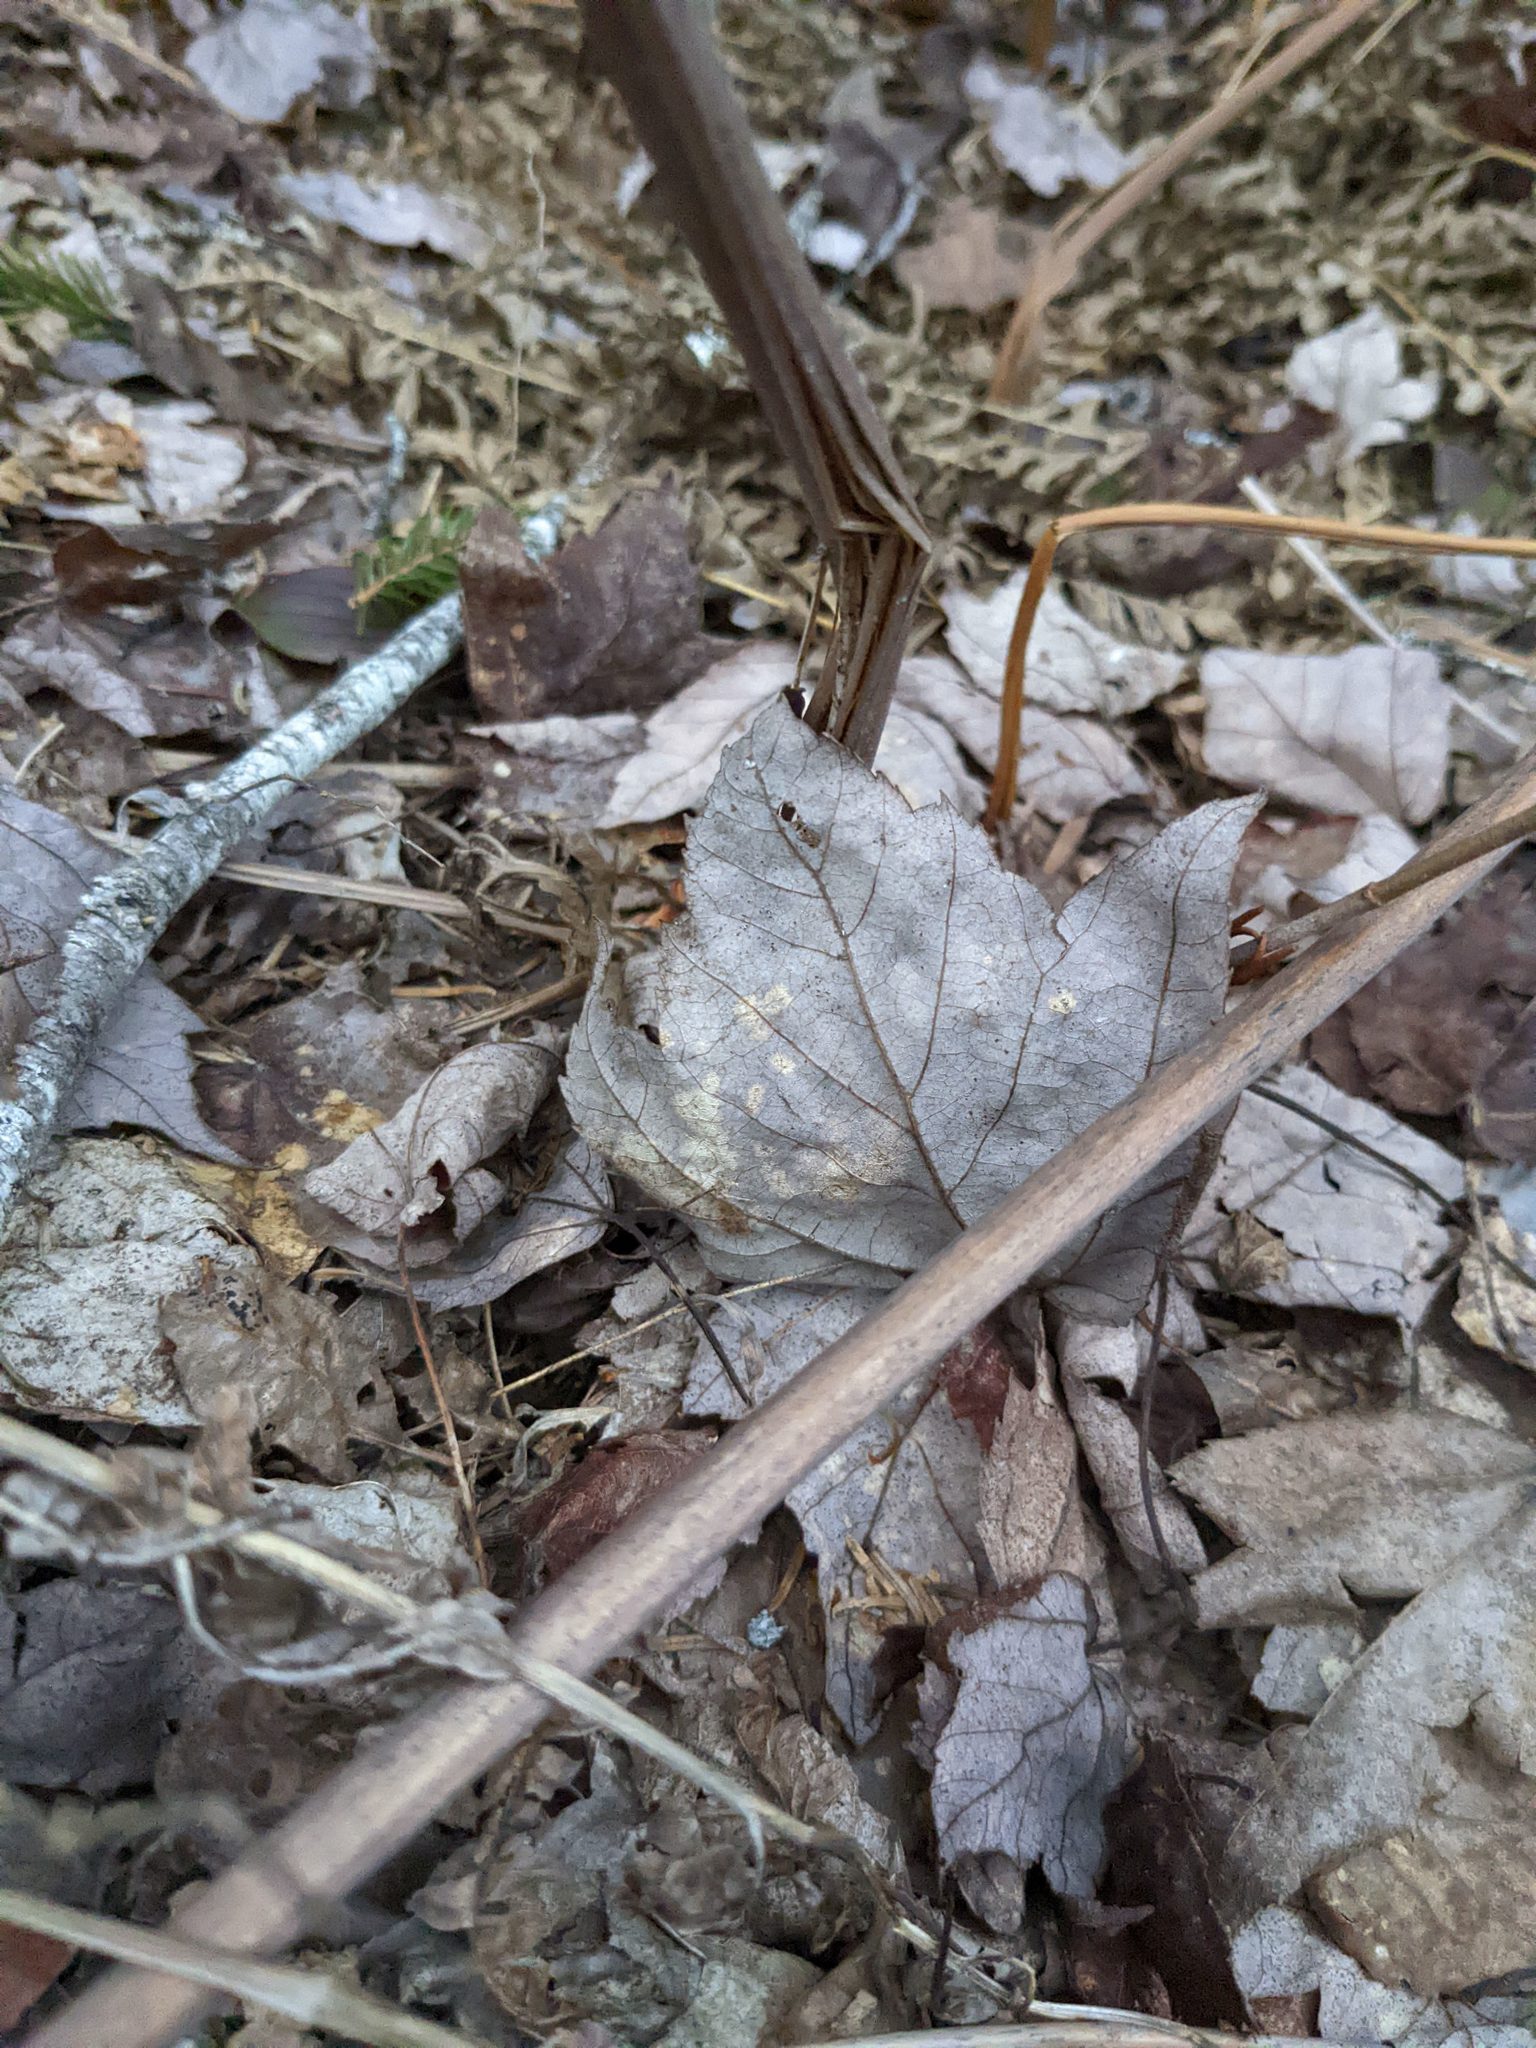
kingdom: Plantae
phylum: Tracheophyta
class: Magnoliopsida
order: Sapindales
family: Sapindaceae
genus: Acer
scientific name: Acer rubrum
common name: Red maple
